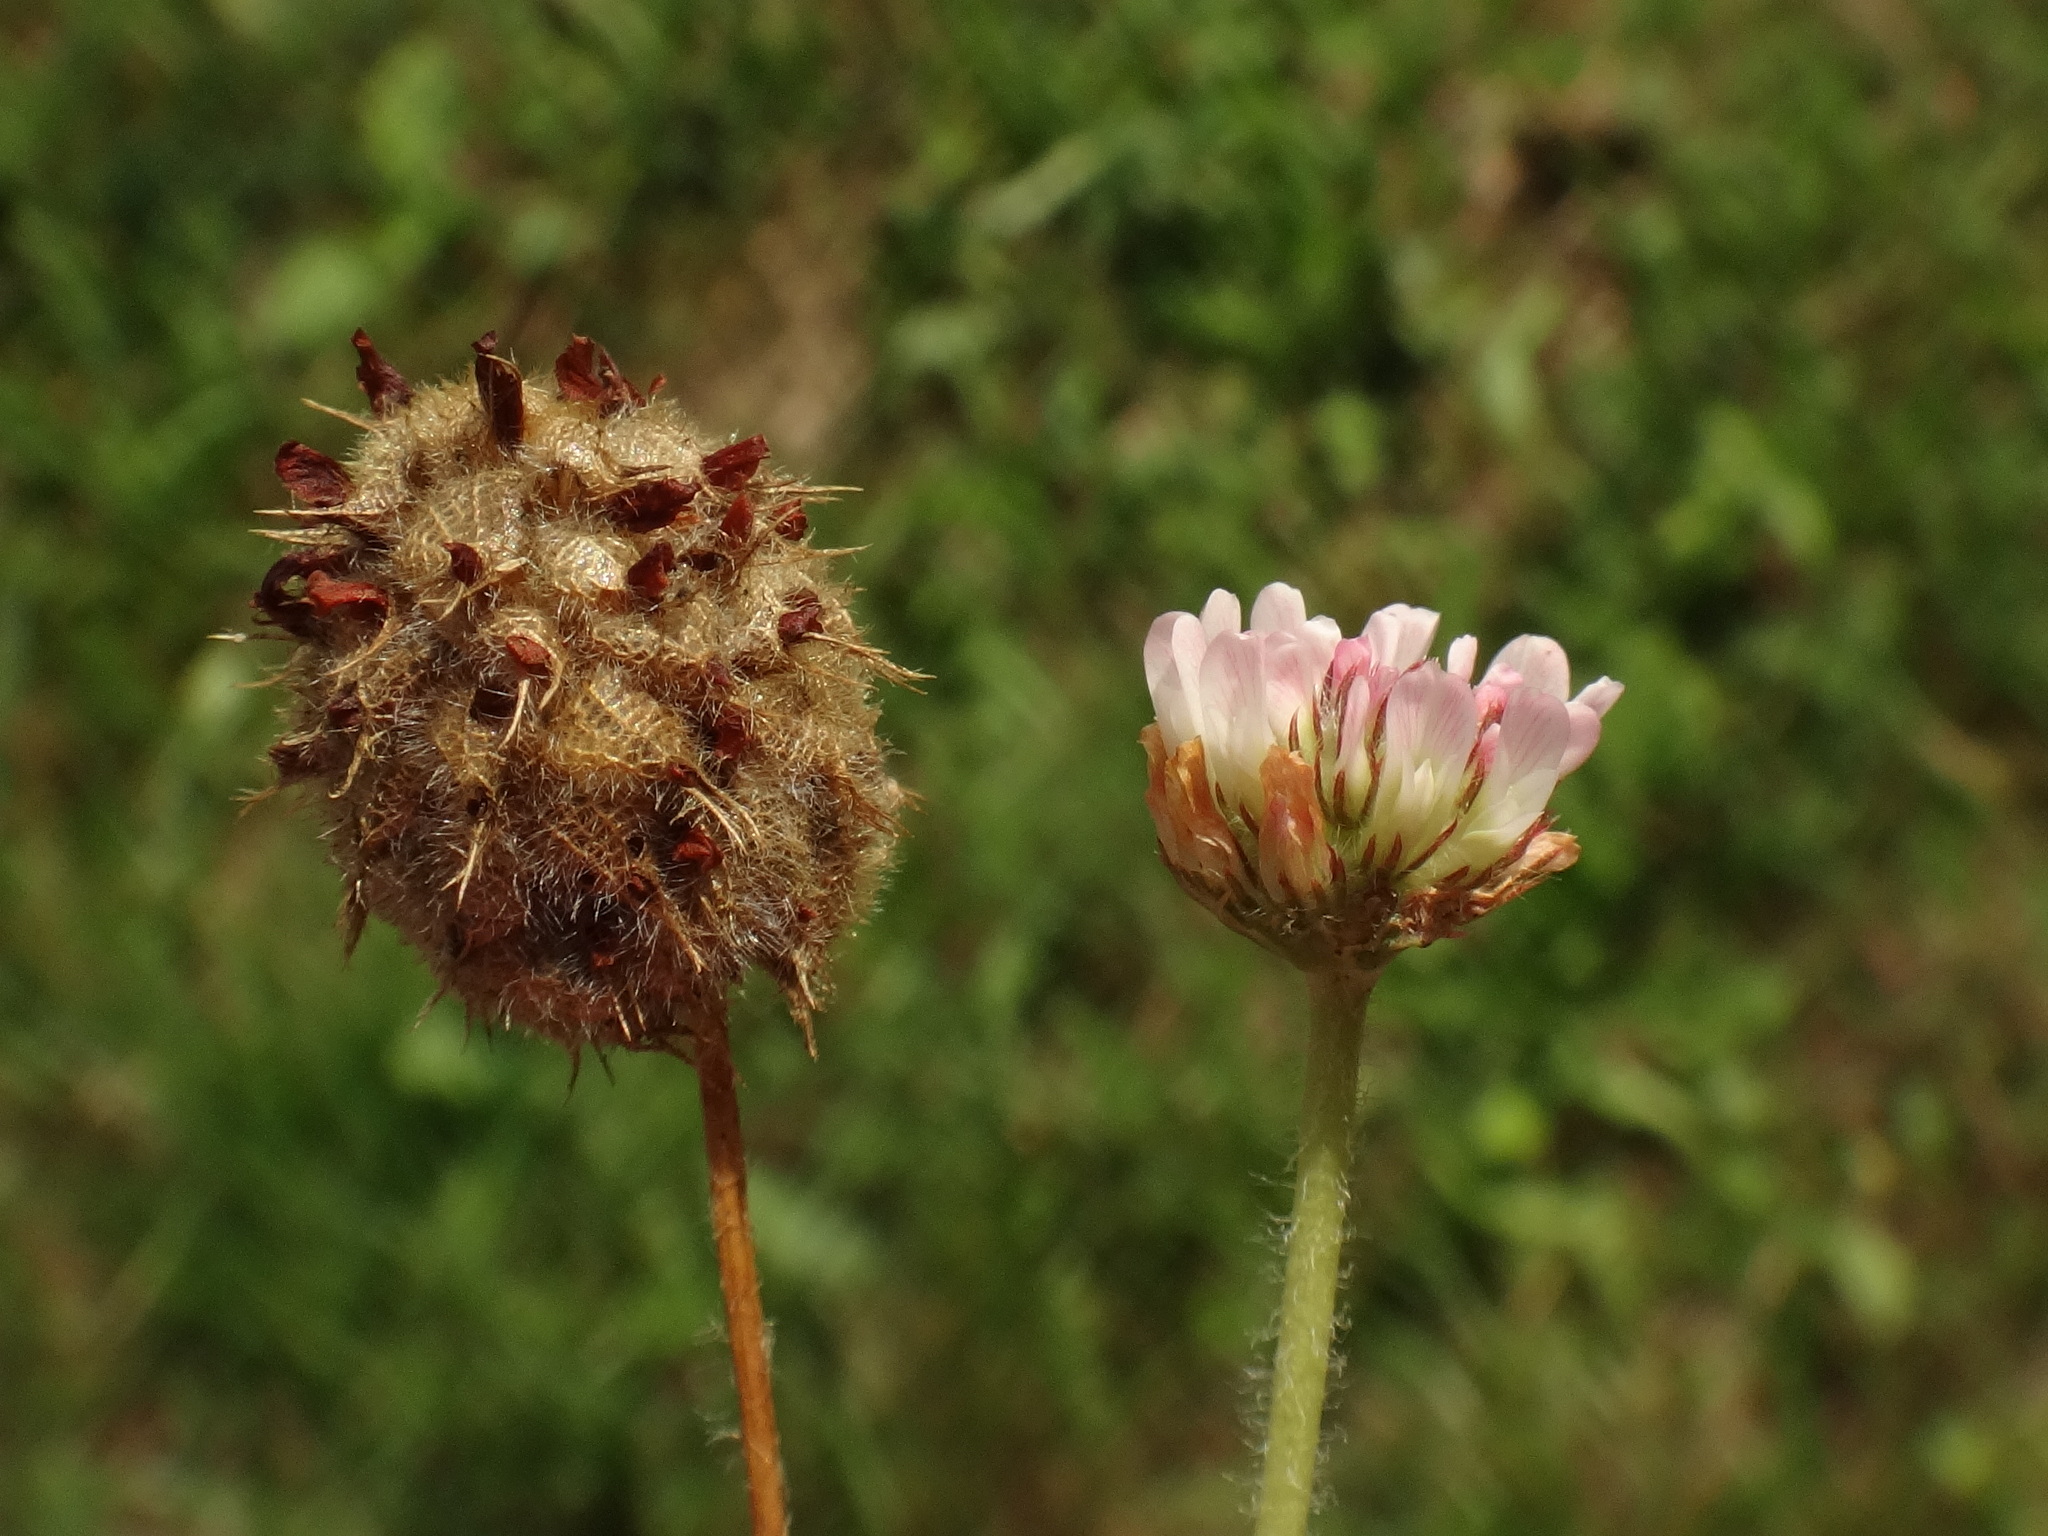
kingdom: Plantae
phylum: Tracheophyta
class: Magnoliopsida
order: Fabales
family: Fabaceae
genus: Trifolium
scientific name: Trifolium fragiferum
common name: Strawberry clover
